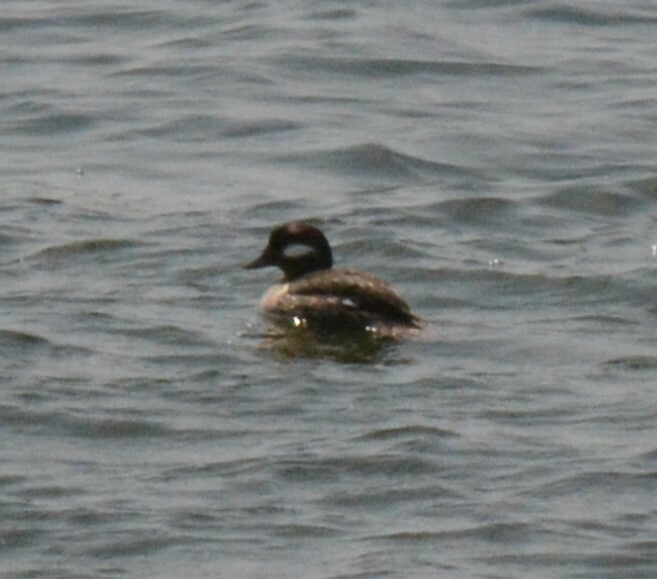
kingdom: Animalia
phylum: Chordata
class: Aves
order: Anseriformes
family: Anatidae
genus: Bucephala
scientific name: Bucephala albeola
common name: Bufflehead
